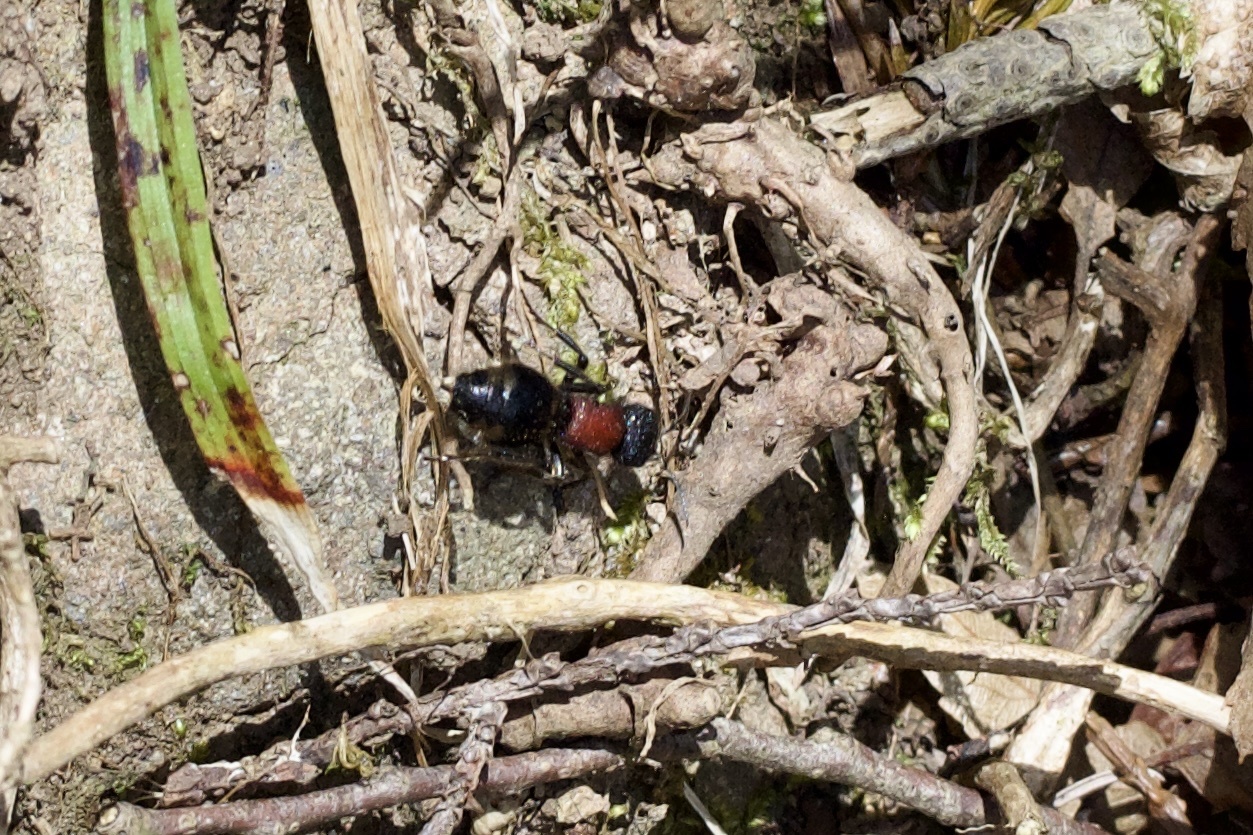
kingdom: Animalia
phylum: Arthropoda
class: Insecta
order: Hymenoptera
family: Mutillidae
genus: Mutilla
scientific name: Mutilla mikado
